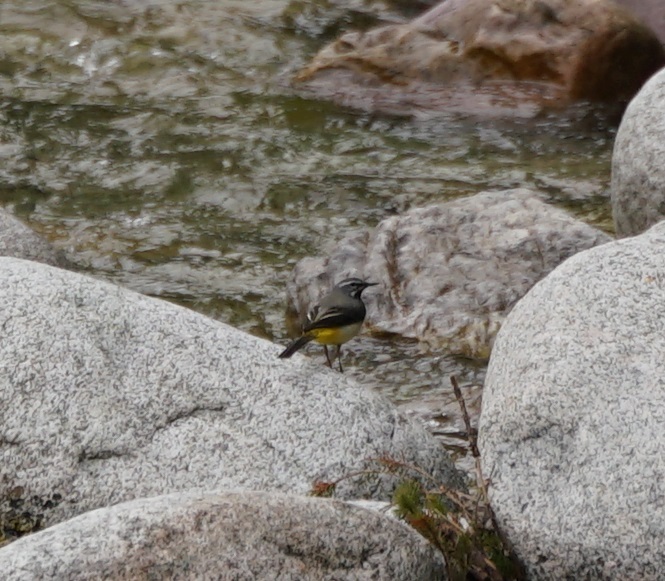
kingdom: Animalia
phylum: Chordata
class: Aves
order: Passeriformes
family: Motacillidae
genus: Motacilla
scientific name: Motacilla cinerea
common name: Grey wagtail
